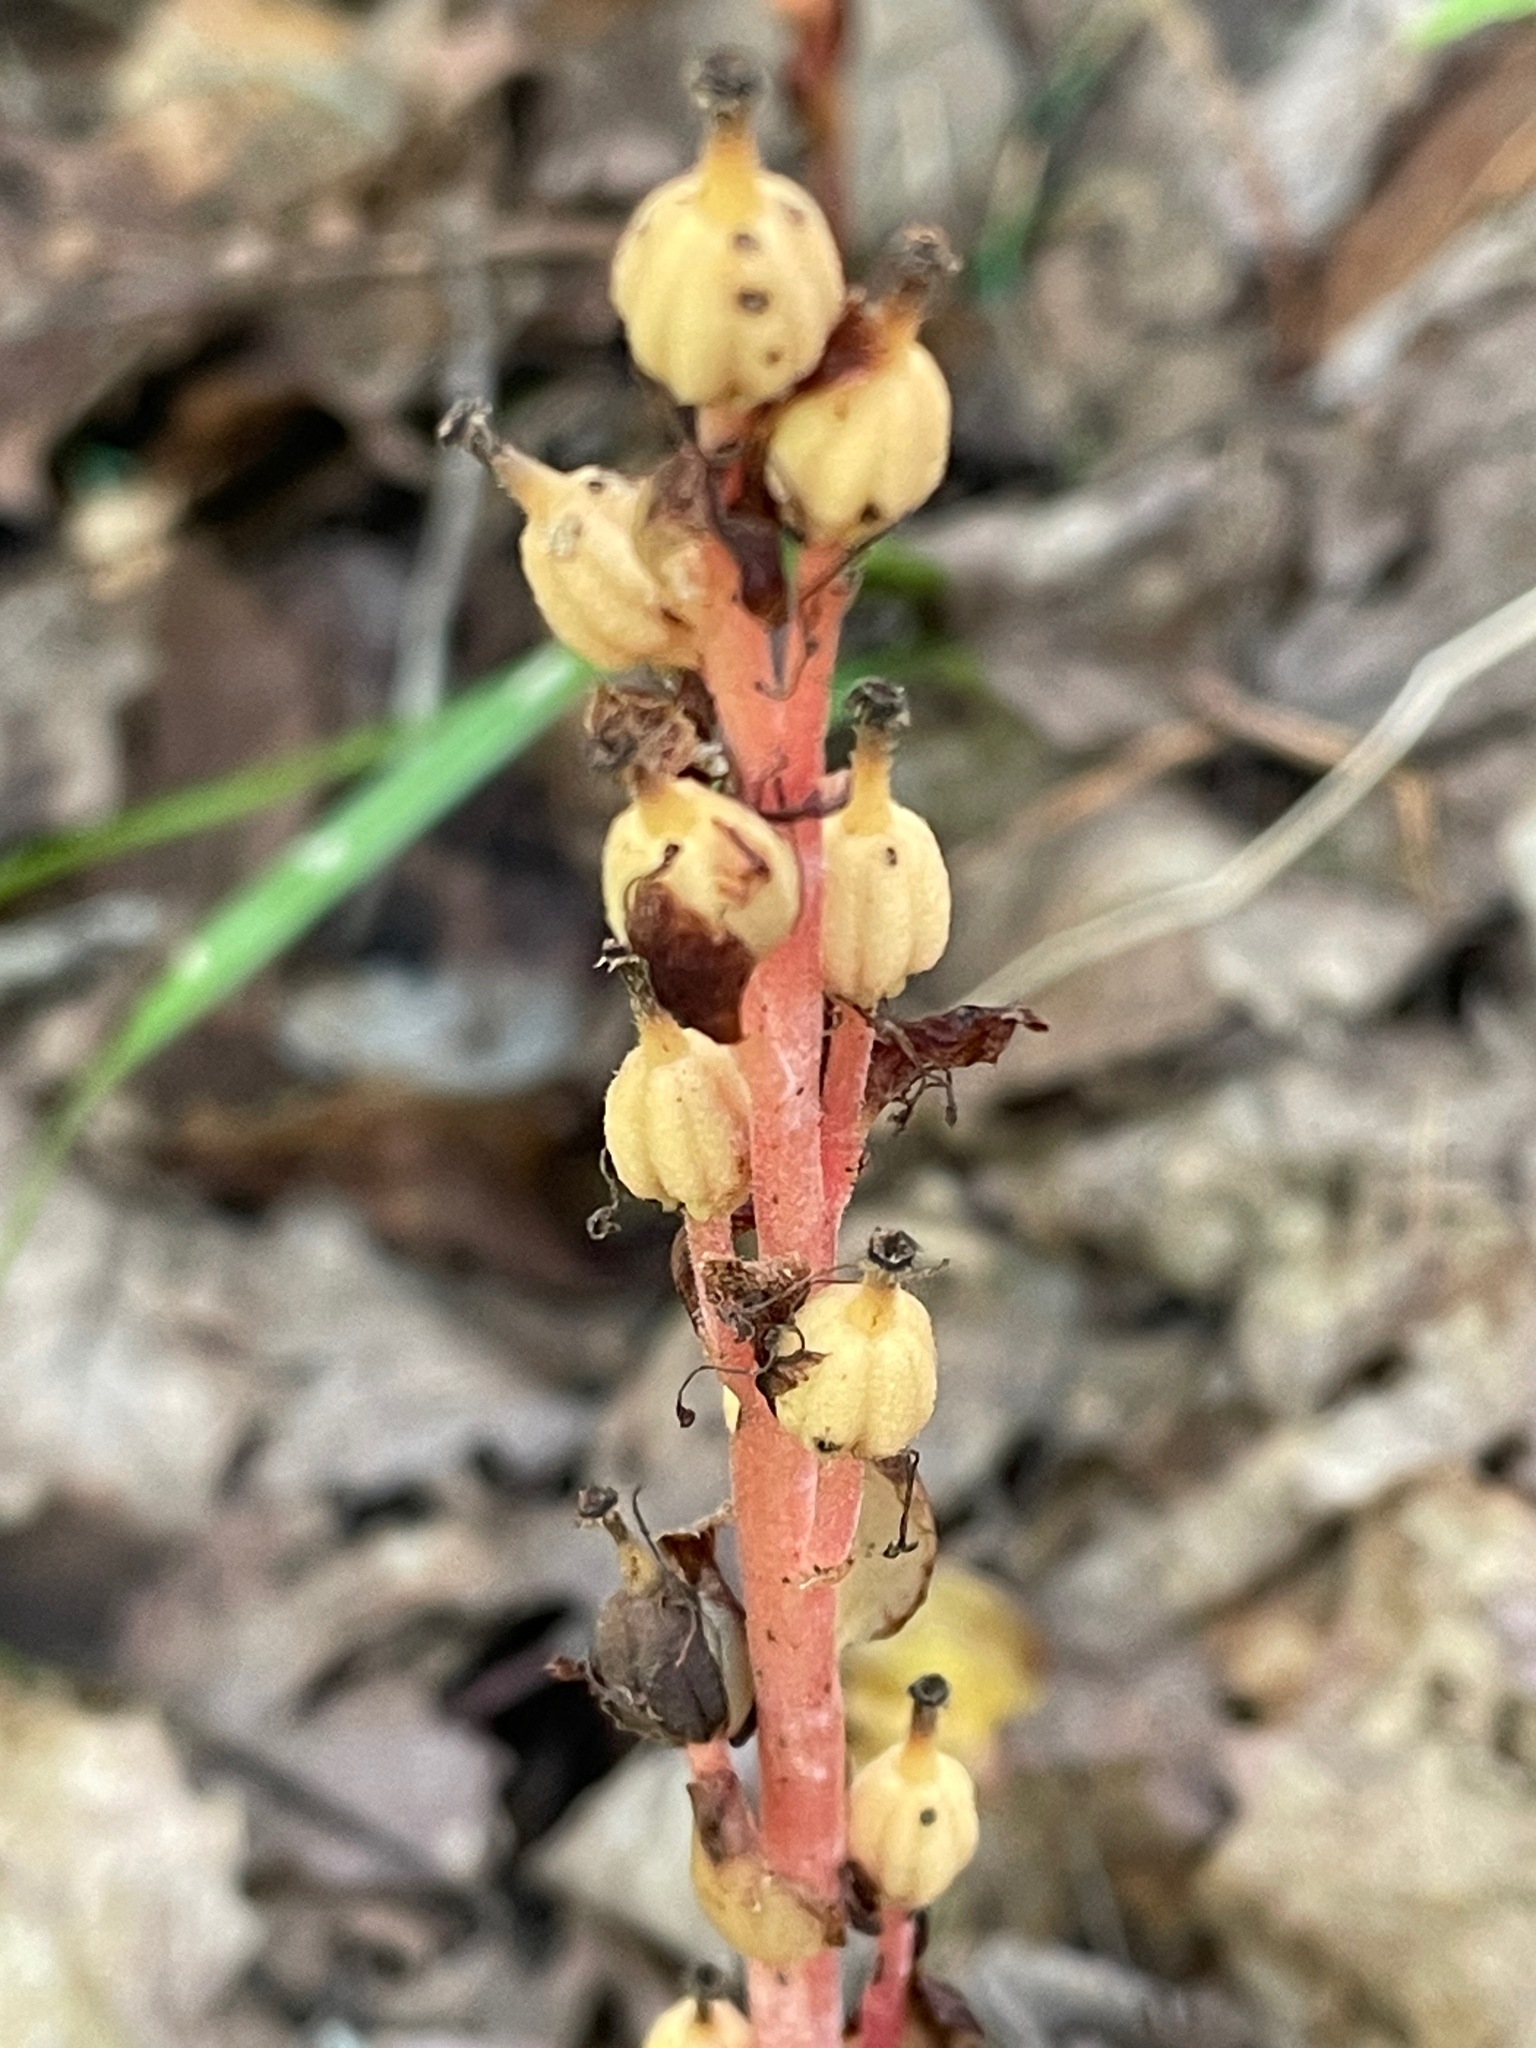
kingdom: Plantae
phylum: Tracheophyta
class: Magnoliopsida
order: Ericales
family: Ericaceae
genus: Hypopitys
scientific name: Hypopitys monotropa
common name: Yellow bird's-nest
